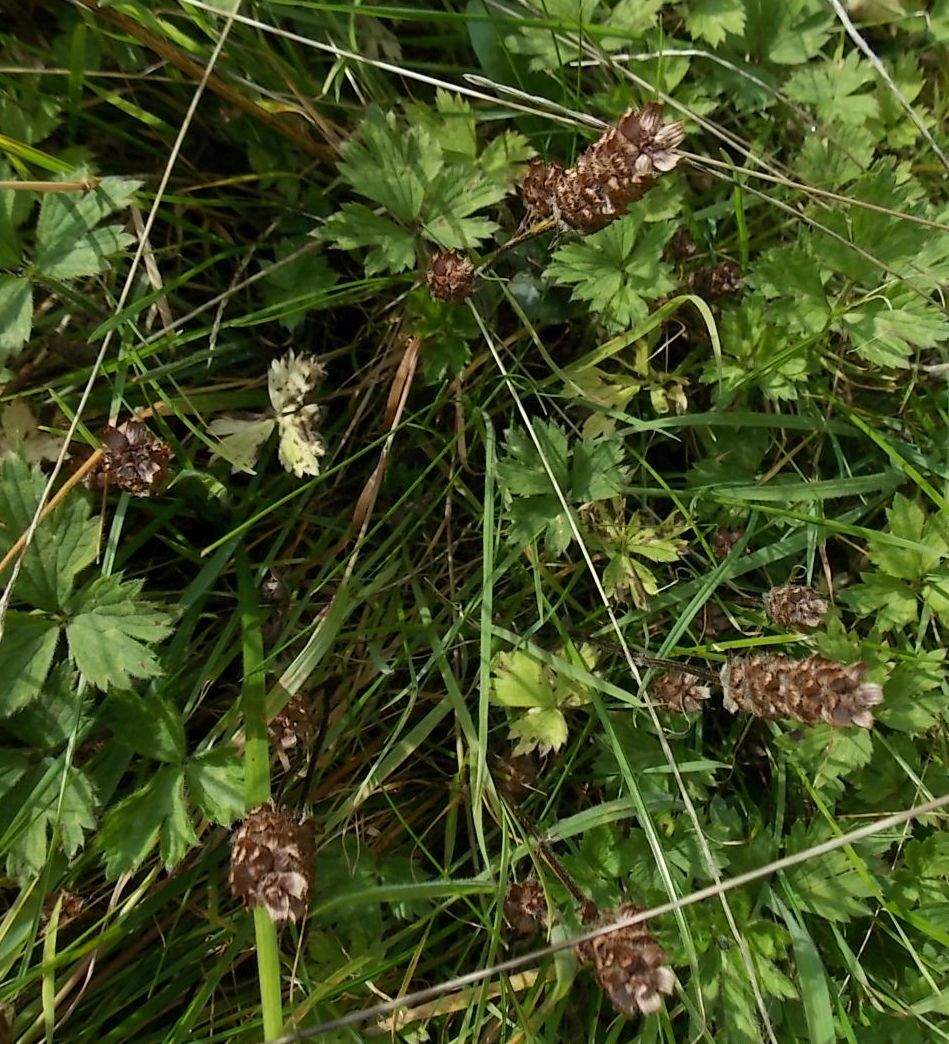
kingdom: Plantae
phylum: Tracheophyta
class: Magnoliopsida
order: Lamiales
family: Lamiaceae
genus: Prunella
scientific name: Prunella vulgaris
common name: Heal-all
